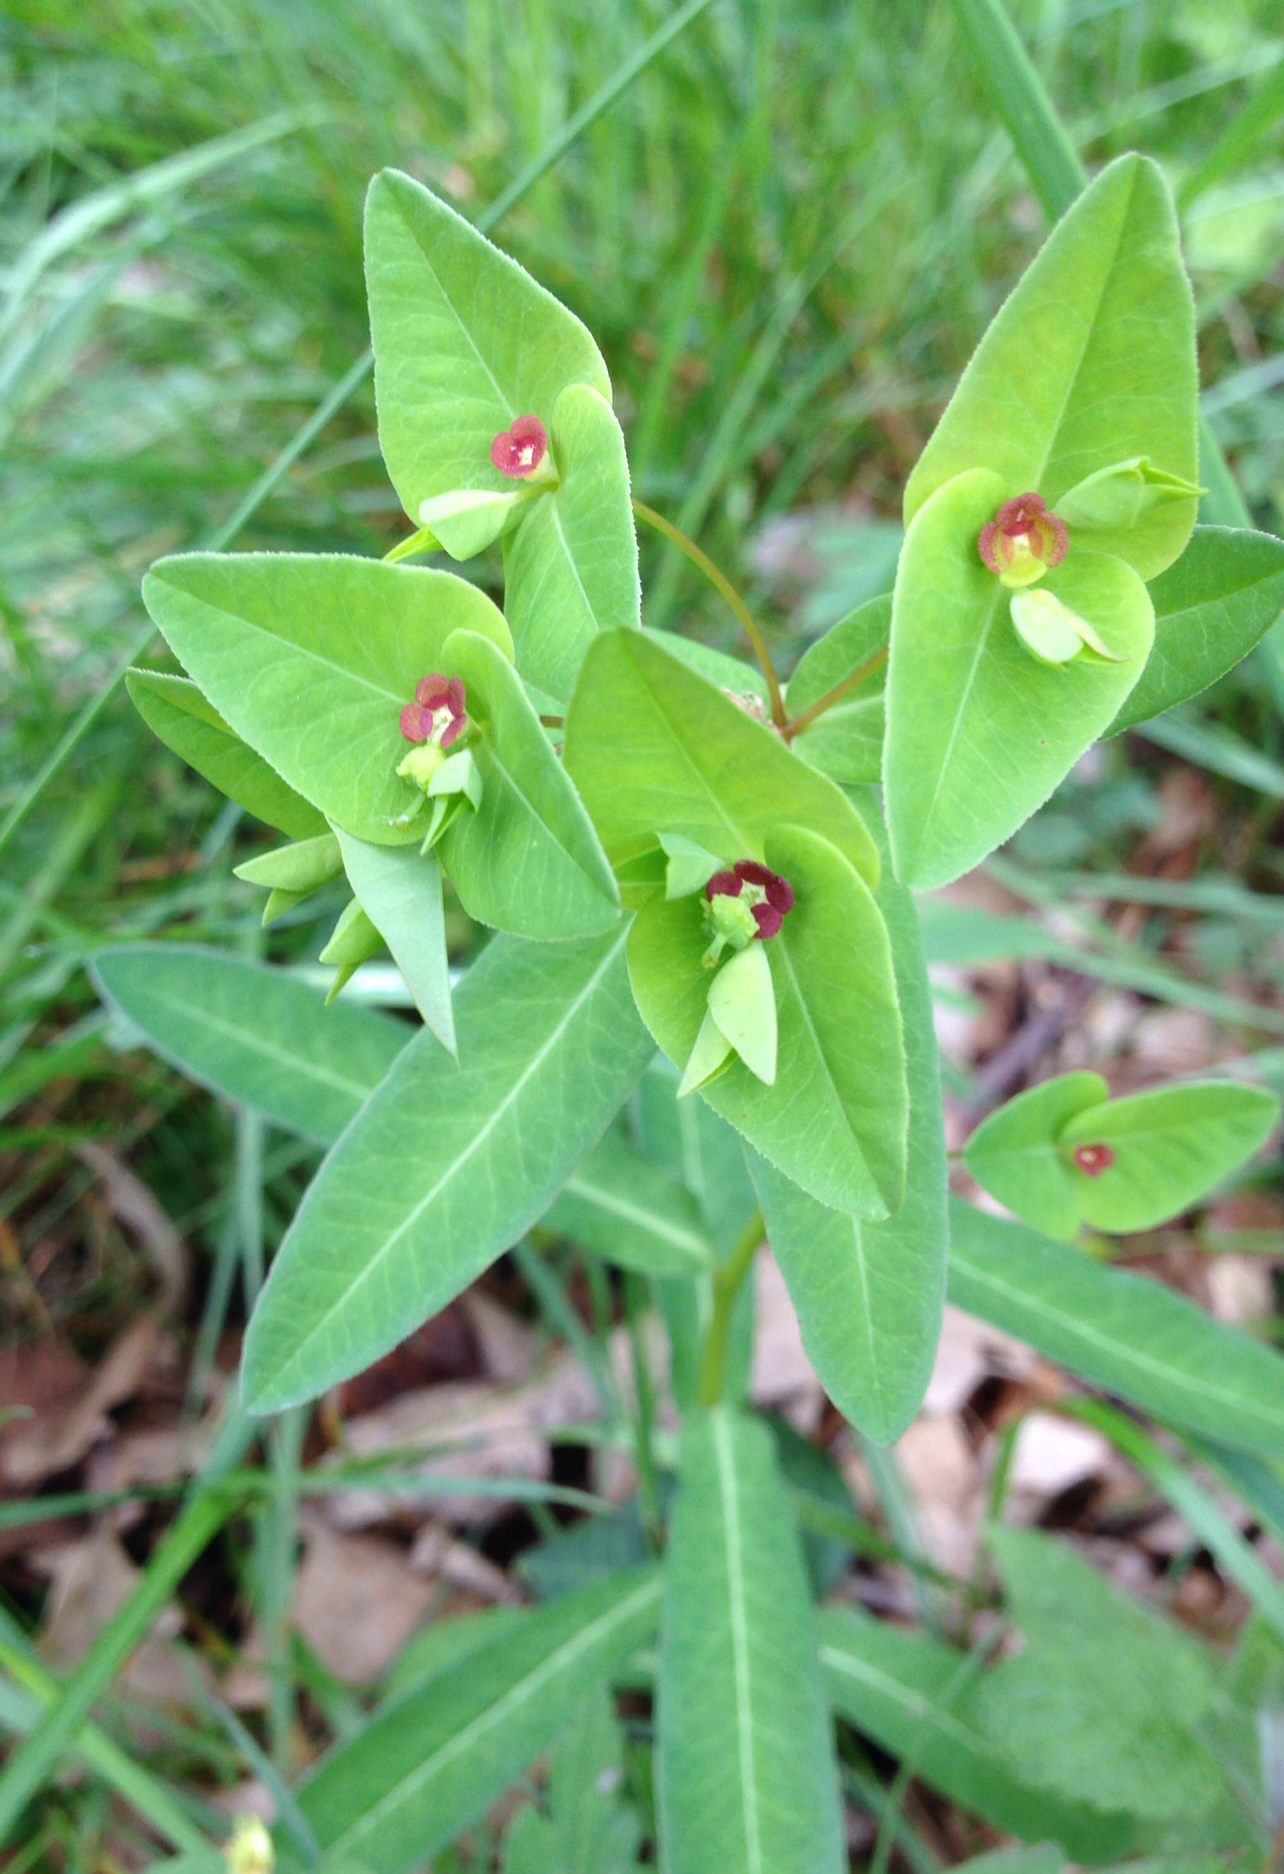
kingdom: Plantae
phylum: Tracheophyta
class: Magnoliopsida
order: Malpighiales
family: Euphorbiaceae
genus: Euphorbia
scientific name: Euphorbia dulcis
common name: Sweet spurge
